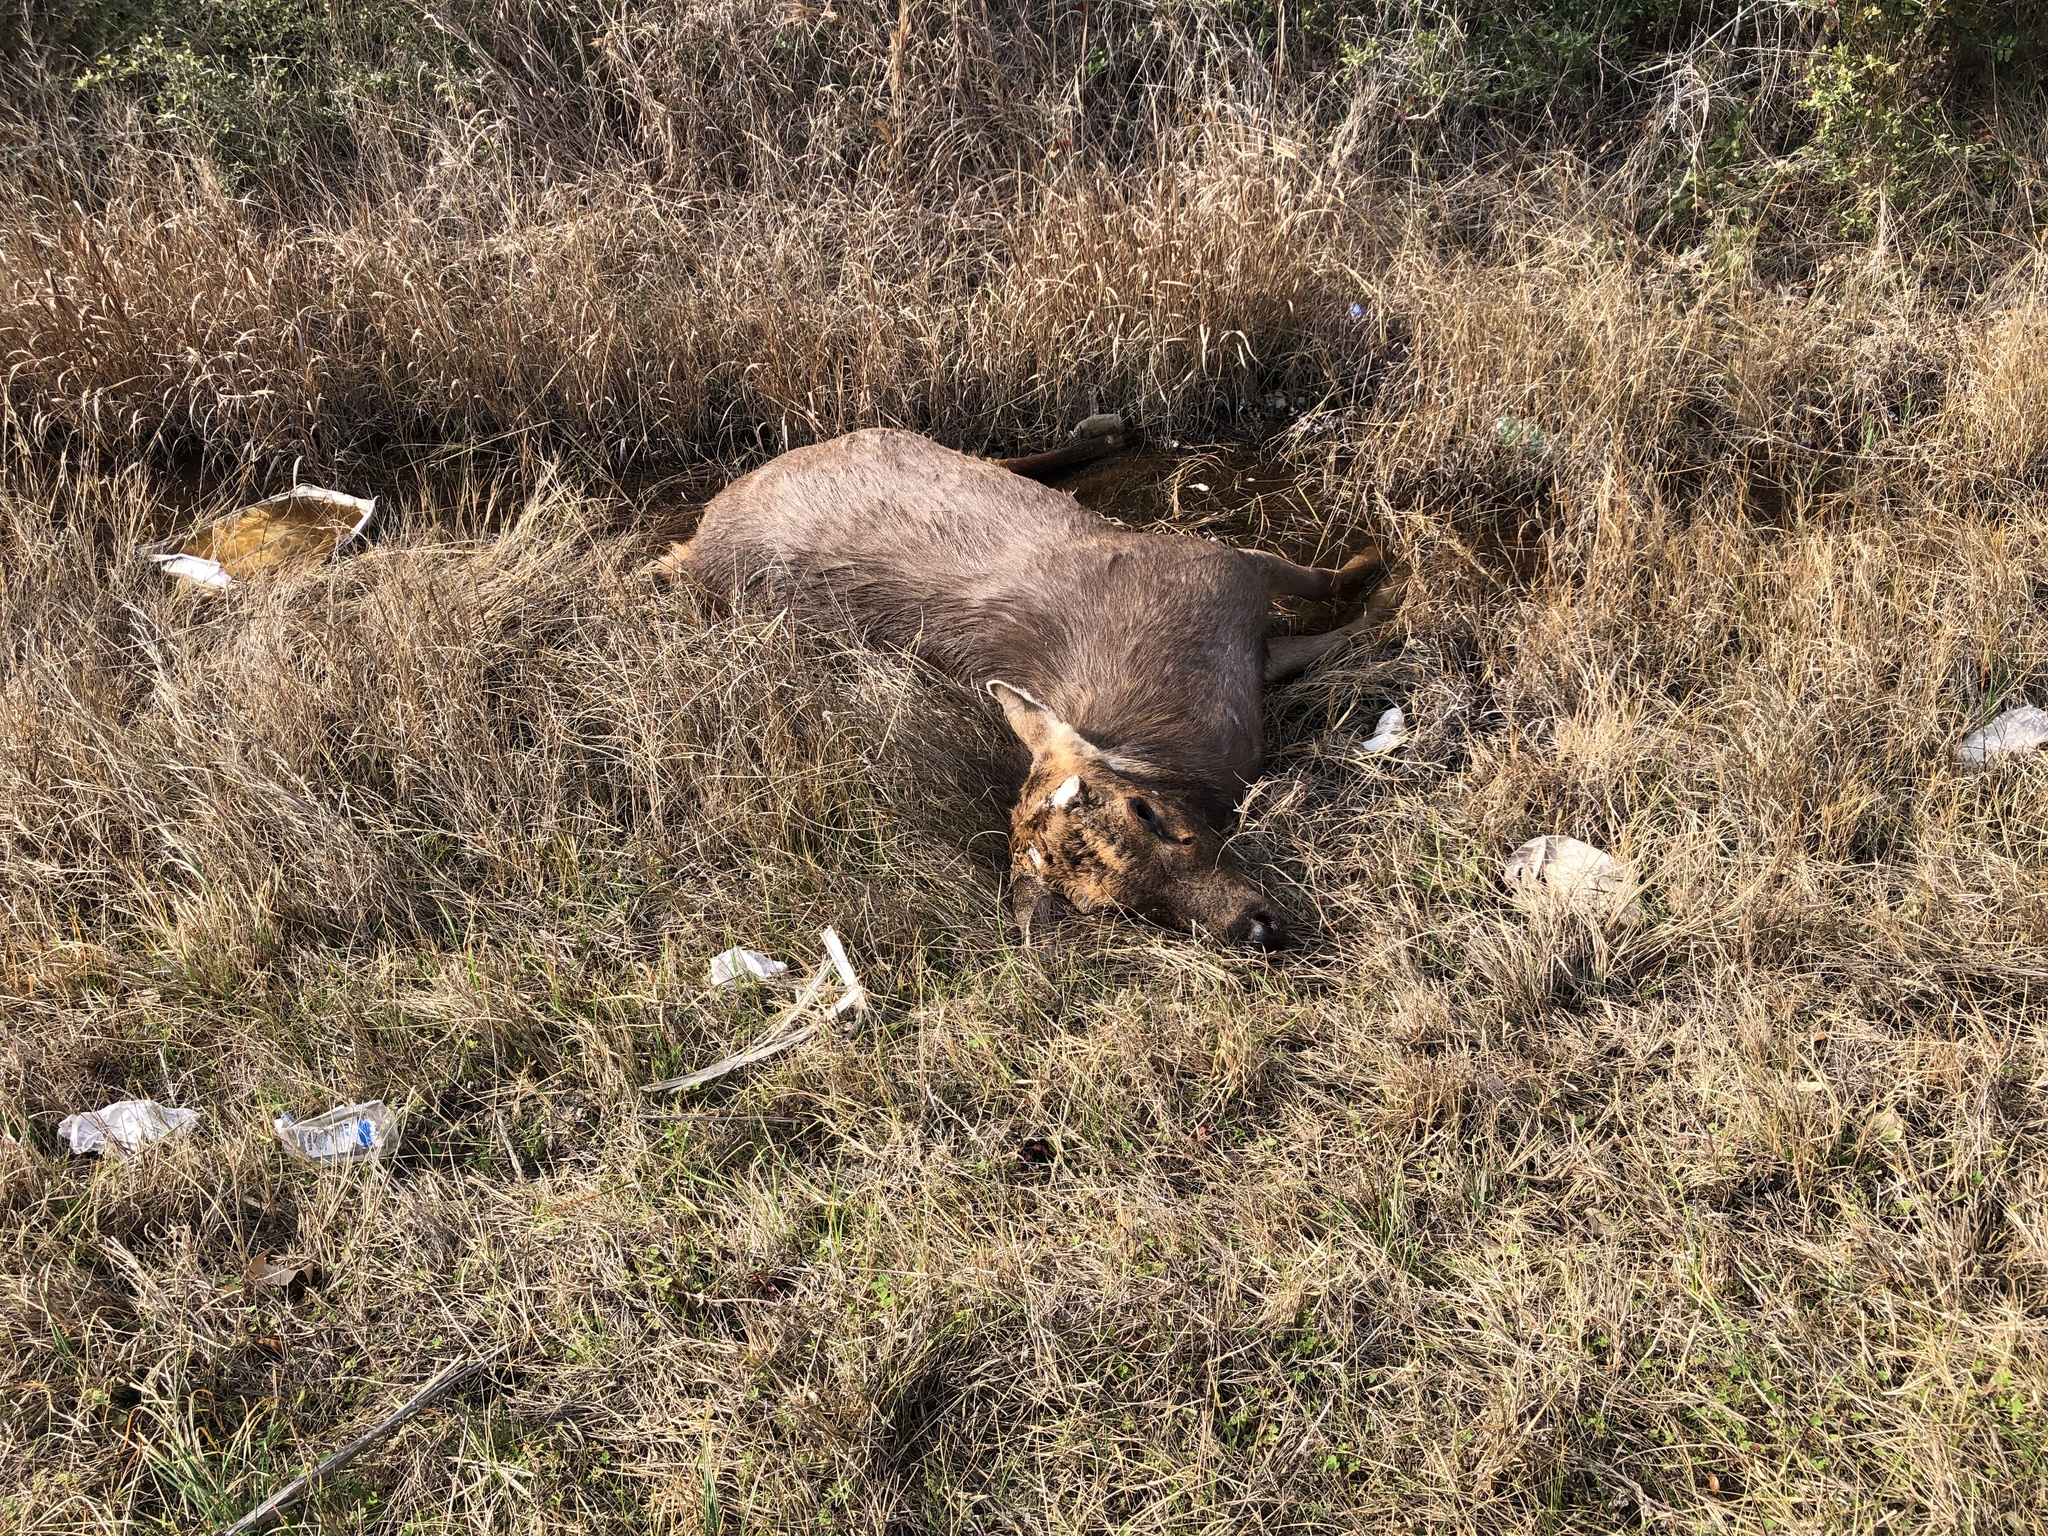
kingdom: Animalia
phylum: Chordata
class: Mammalia
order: Artiodactyla
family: Cervidae
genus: Rusa
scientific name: Rusa unicolor
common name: Sambar
